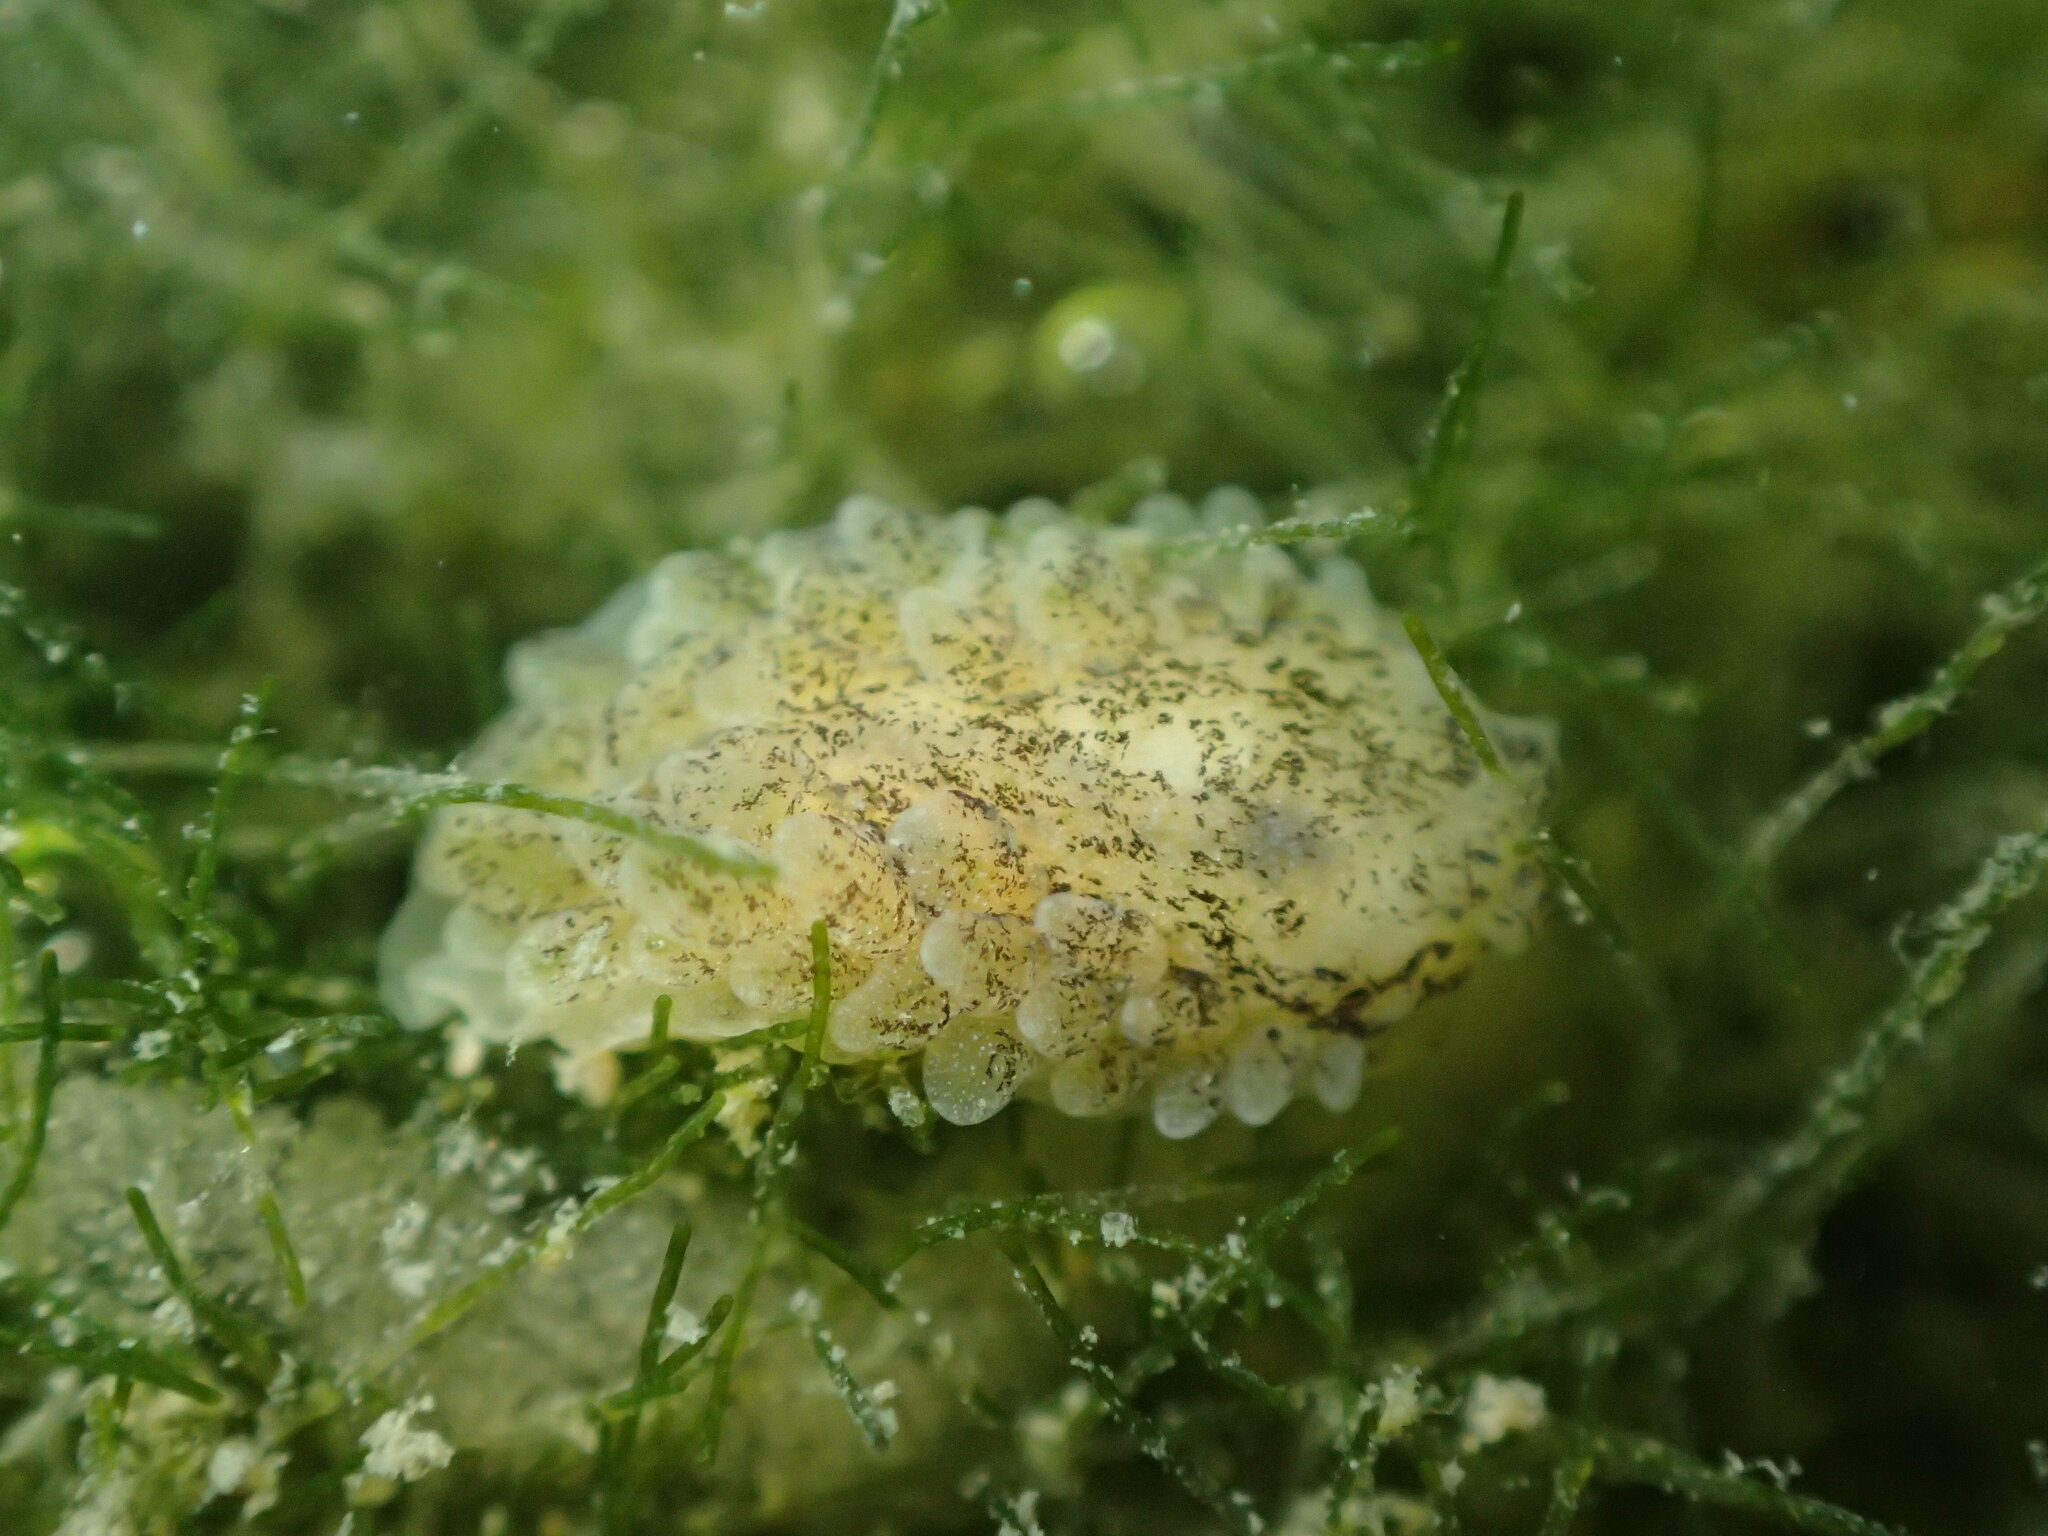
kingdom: Animalia
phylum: Mollusca
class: Gastropoda
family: Limapontiidae
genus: Alderia
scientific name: Alderia modesta
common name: Modest alderia
